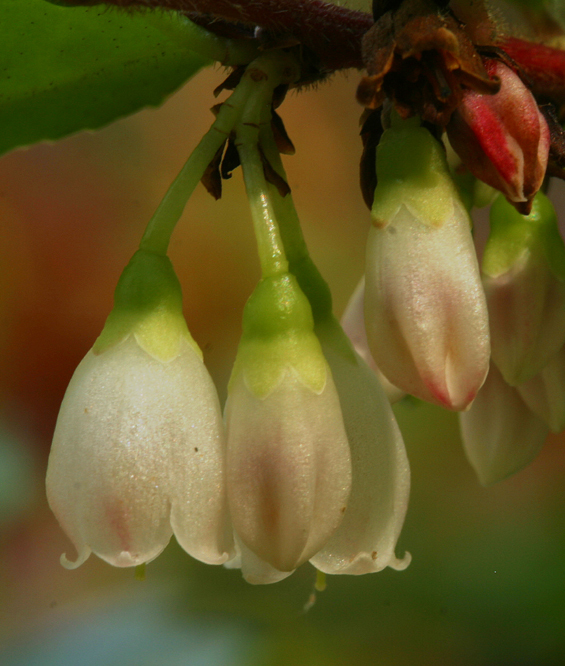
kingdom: Plantae
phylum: Tracheophyta
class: Magnoliopsida
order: Ericales
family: Ericaceae
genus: Vaccinium
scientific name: Vaccinium ovatum
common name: California-huckleberry
